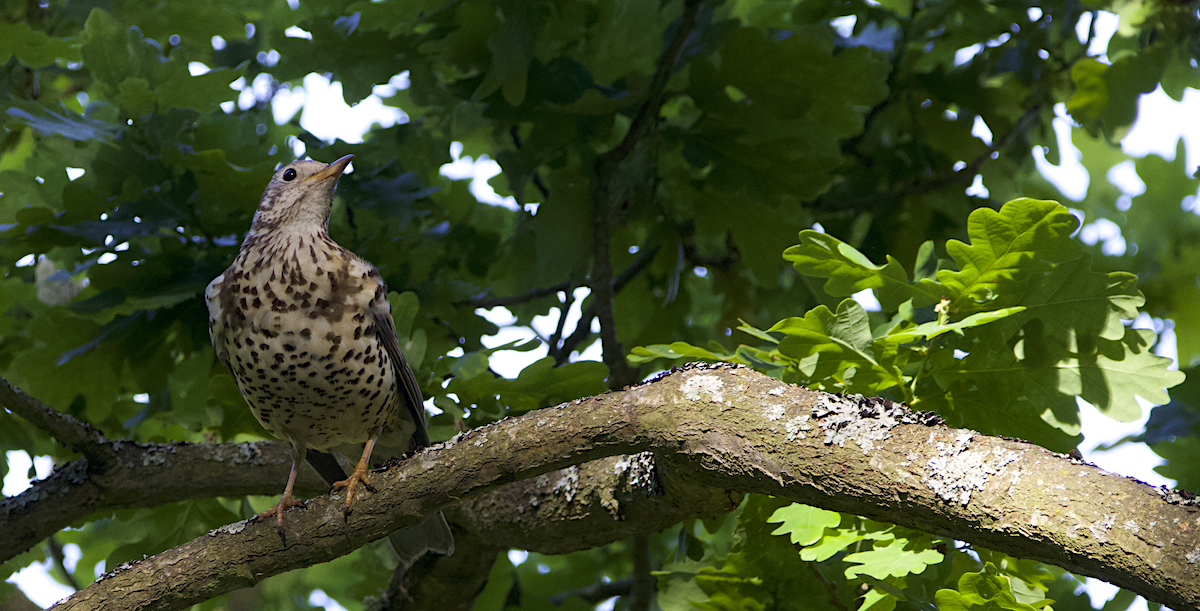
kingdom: Animalia
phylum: Chordata
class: Aves
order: Passeriformes
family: Turdidae
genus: Turdus
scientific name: Turdus viscivorus
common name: Mistle thrush
